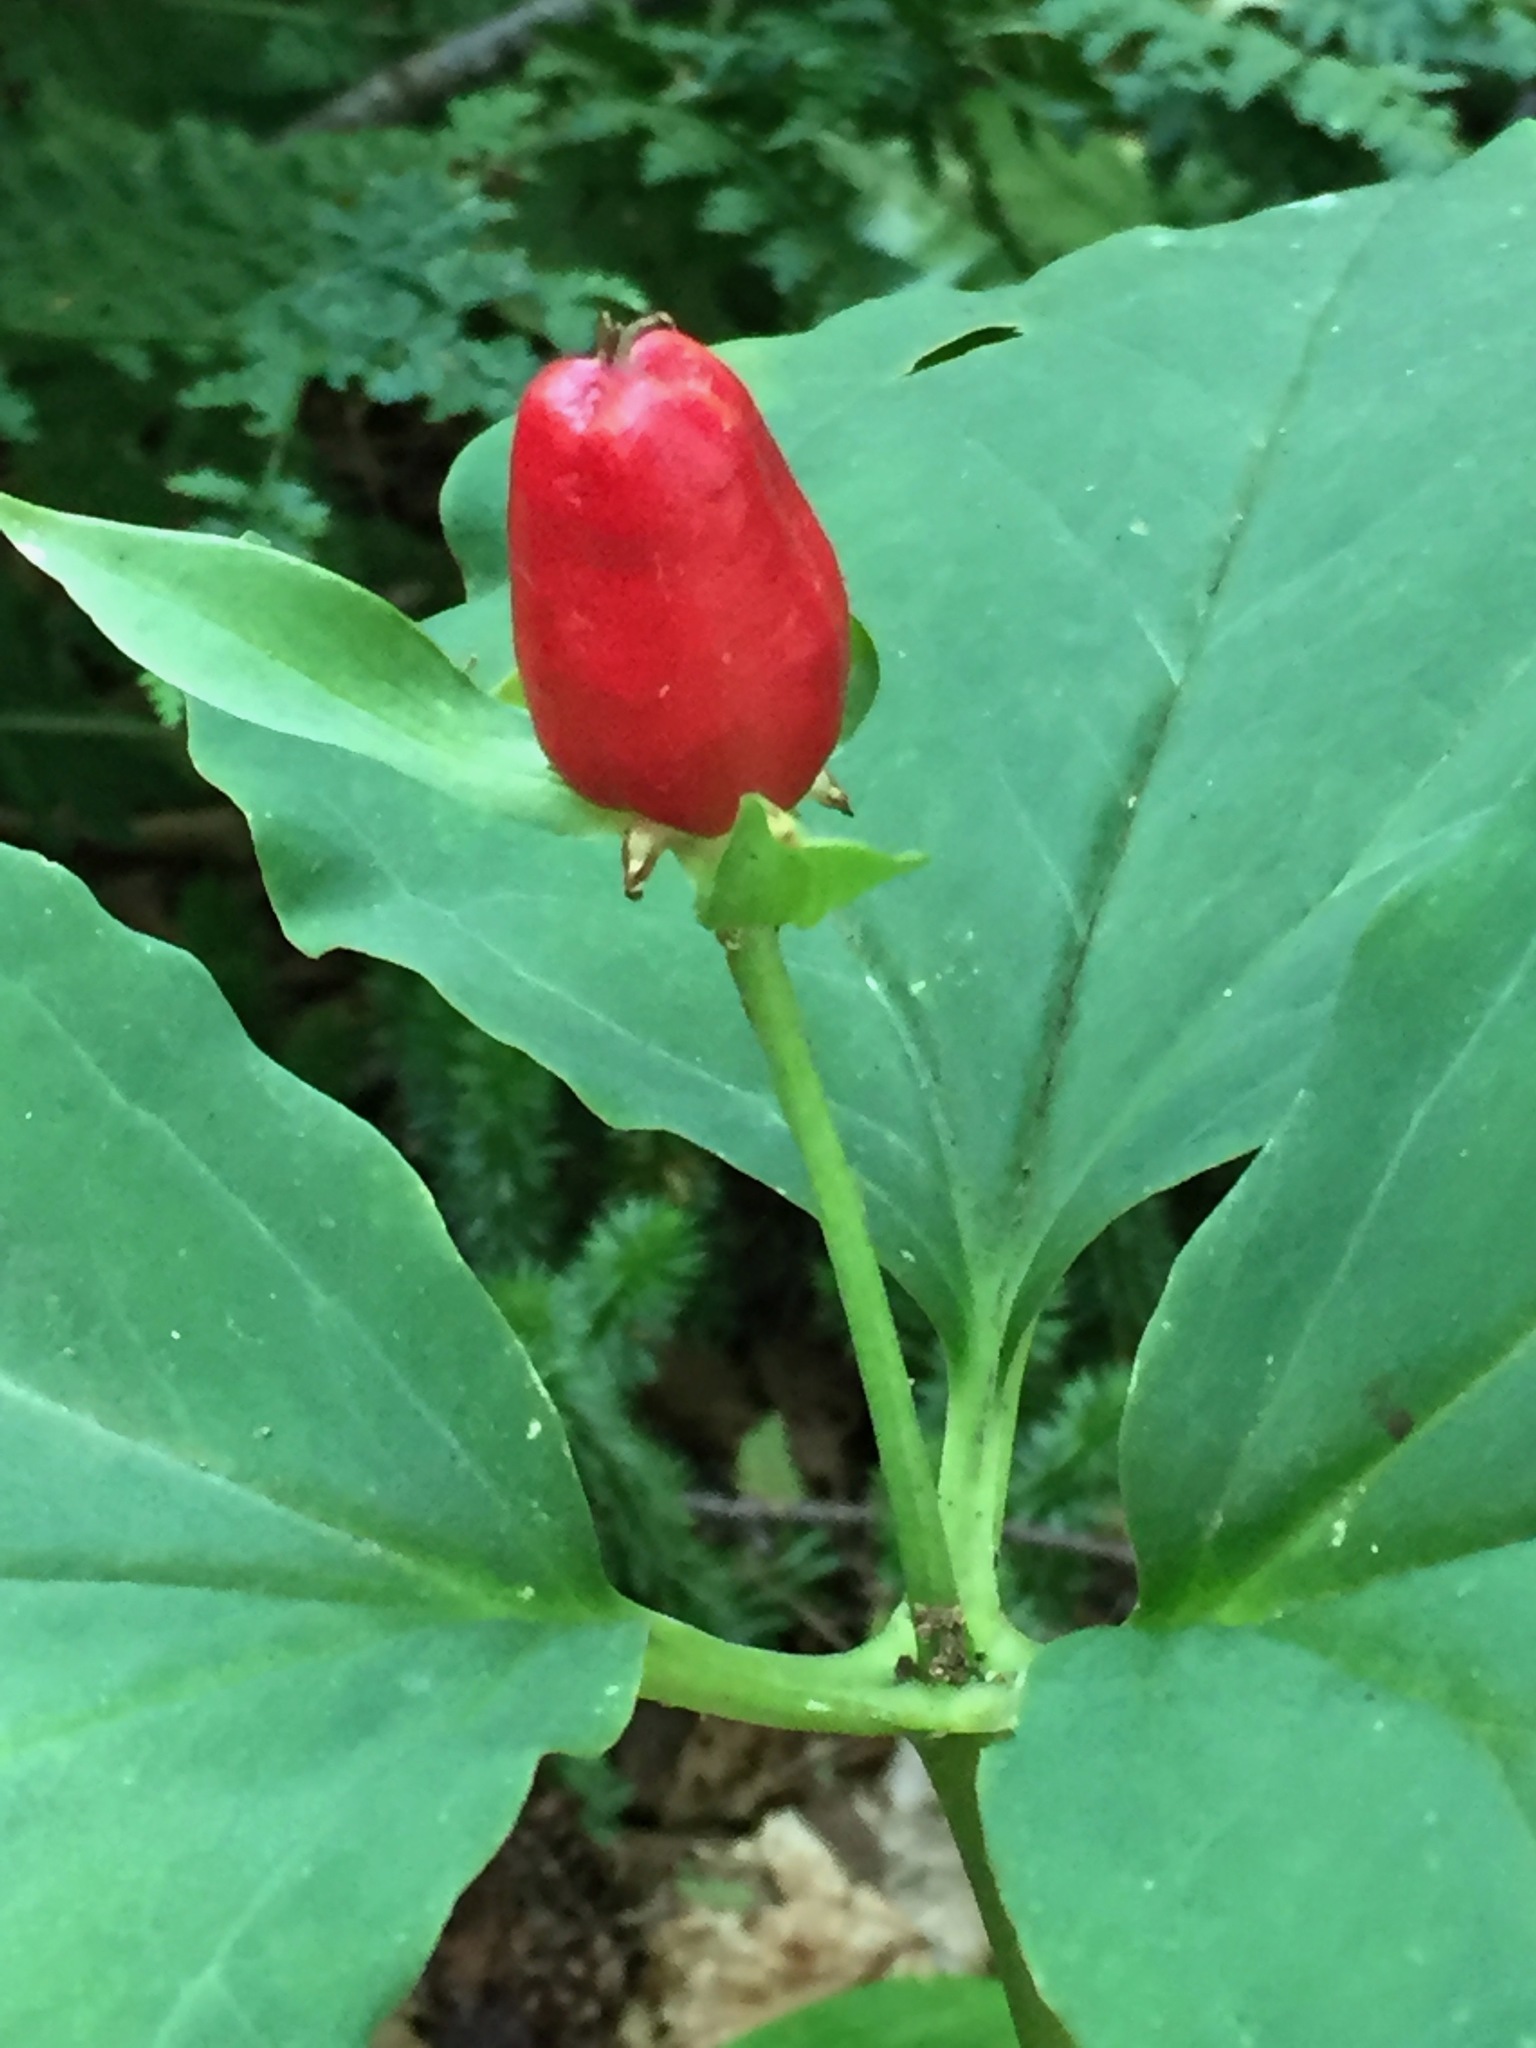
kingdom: Plantae
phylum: Tracheophyta
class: Liliopsida
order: Liliales
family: Melanthiaceae
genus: Trillium
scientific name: Trillium undulatum
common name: Paint trillium
